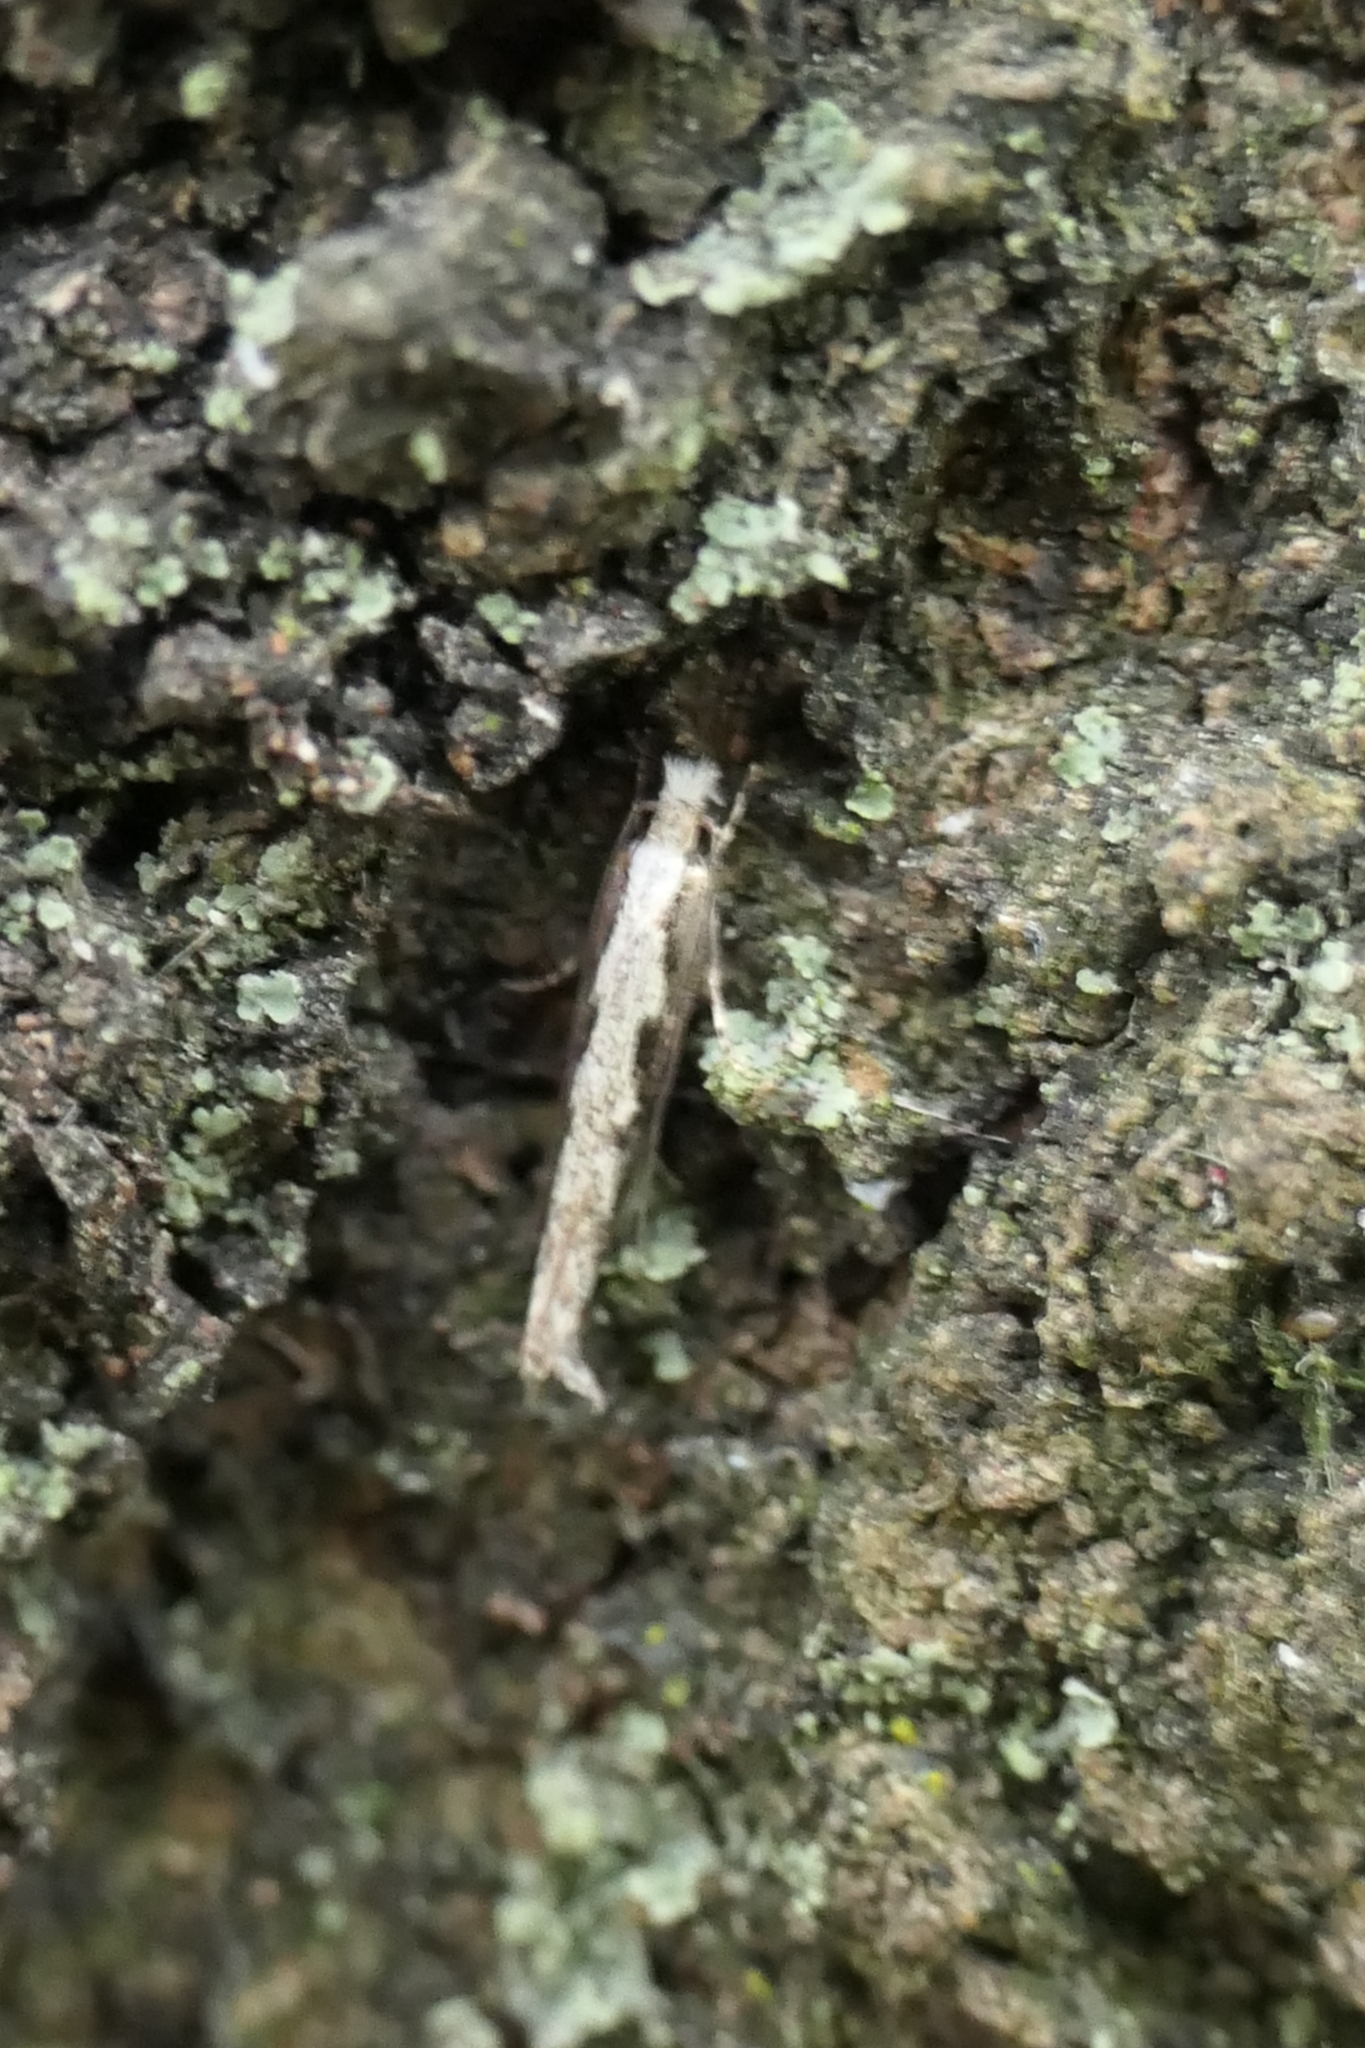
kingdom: Animalia
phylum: Arthropoda
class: Insecta
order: Lepidoptera
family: Tineidae
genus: Erechthias
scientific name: Erechthias fulguritella
